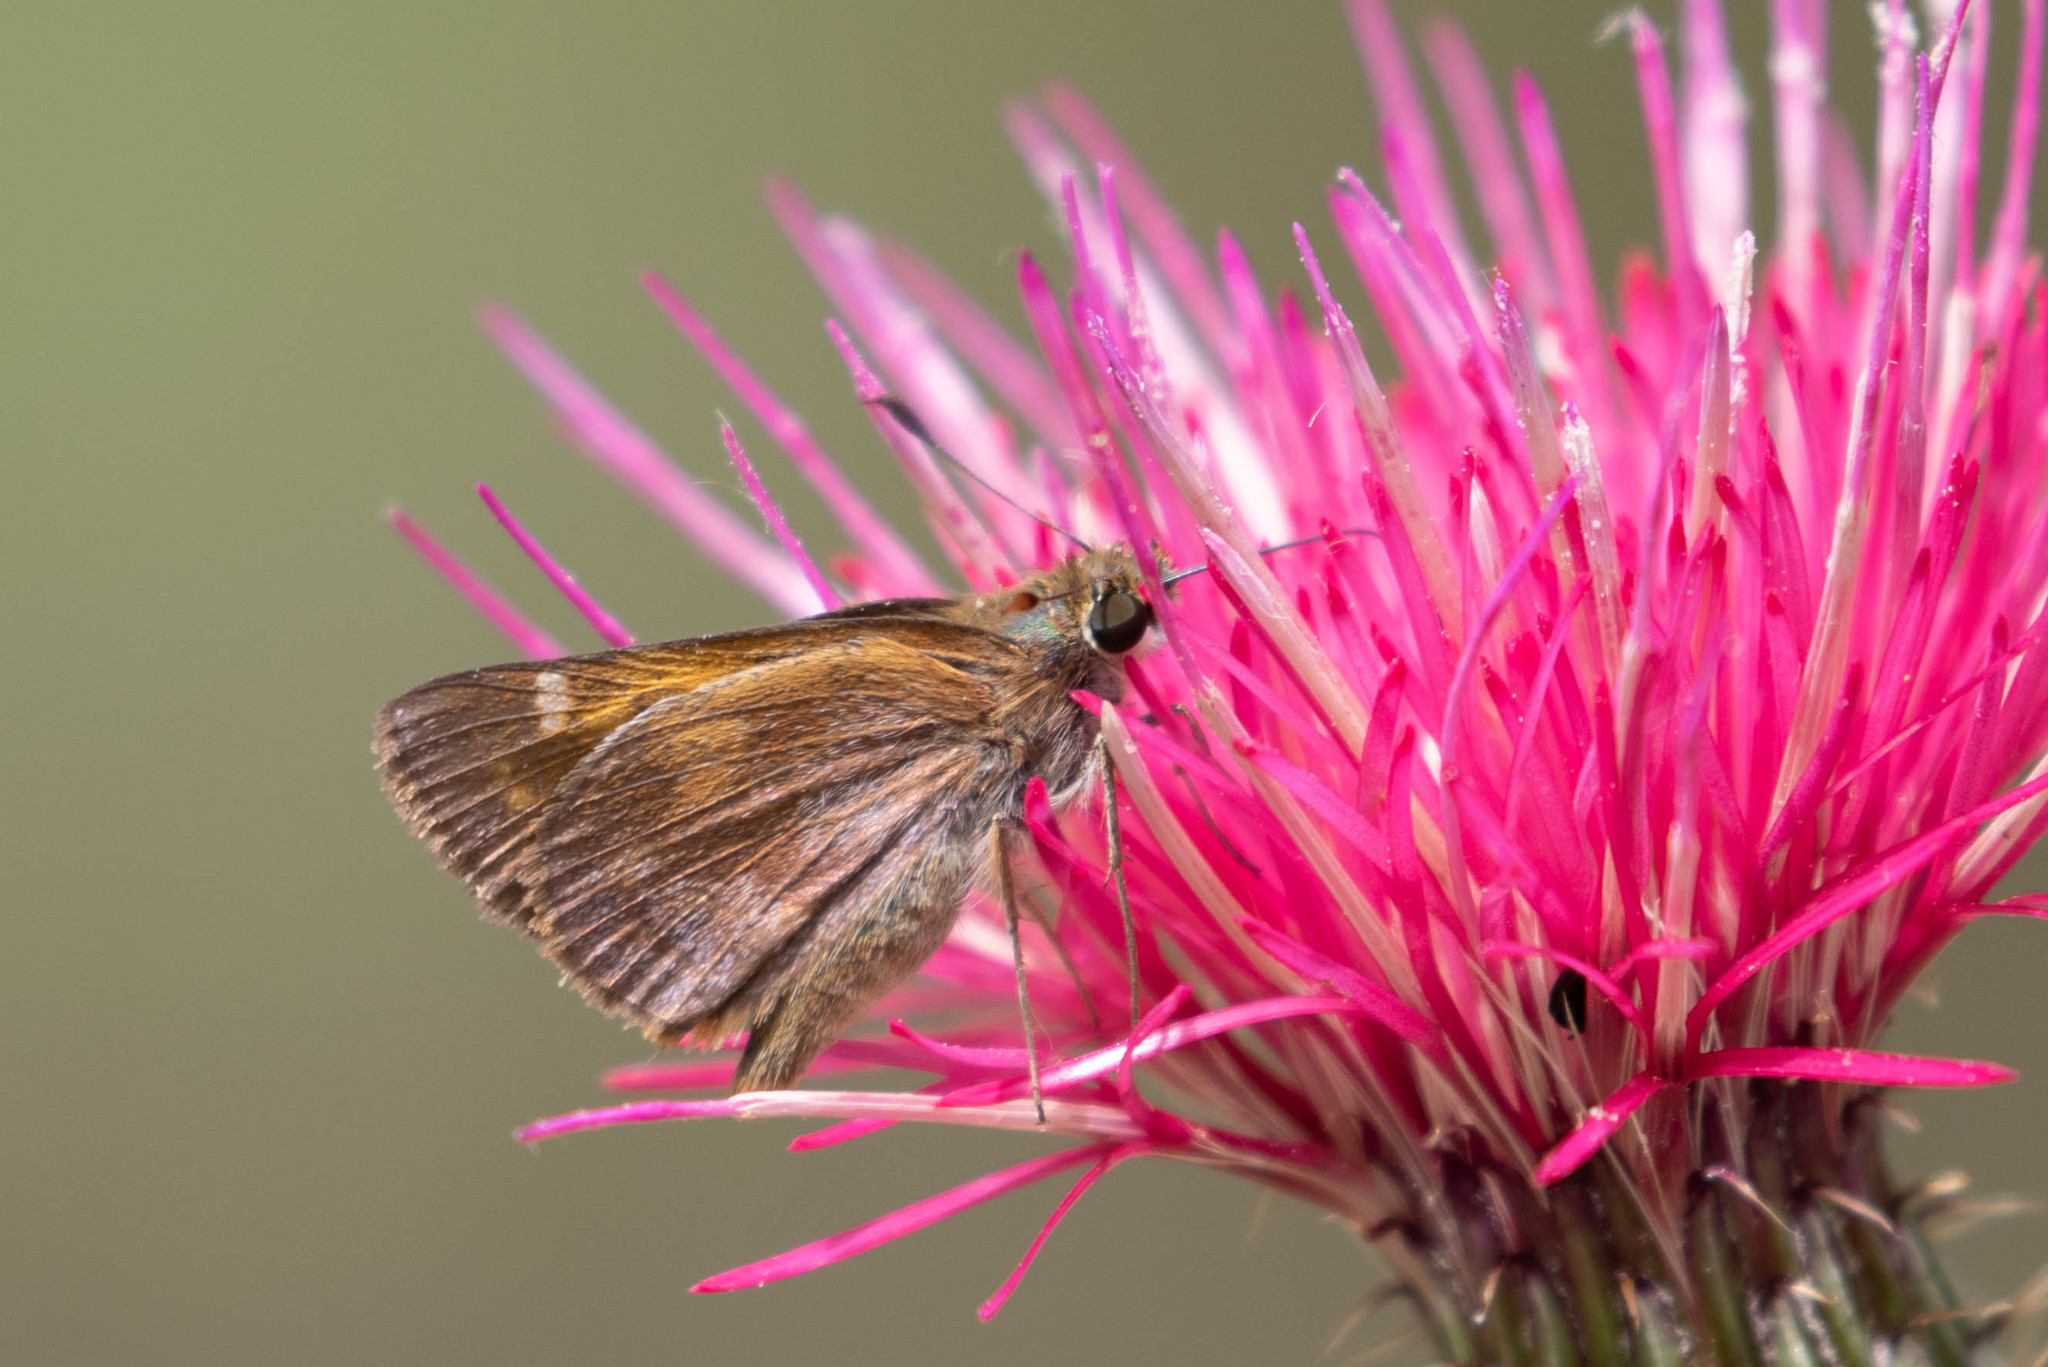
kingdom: Animalia
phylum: Arthropoda
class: Insecta
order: Lepidoptera
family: Hesperiidae
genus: Lon
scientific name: Lon taxiles
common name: Taxiles skipper
